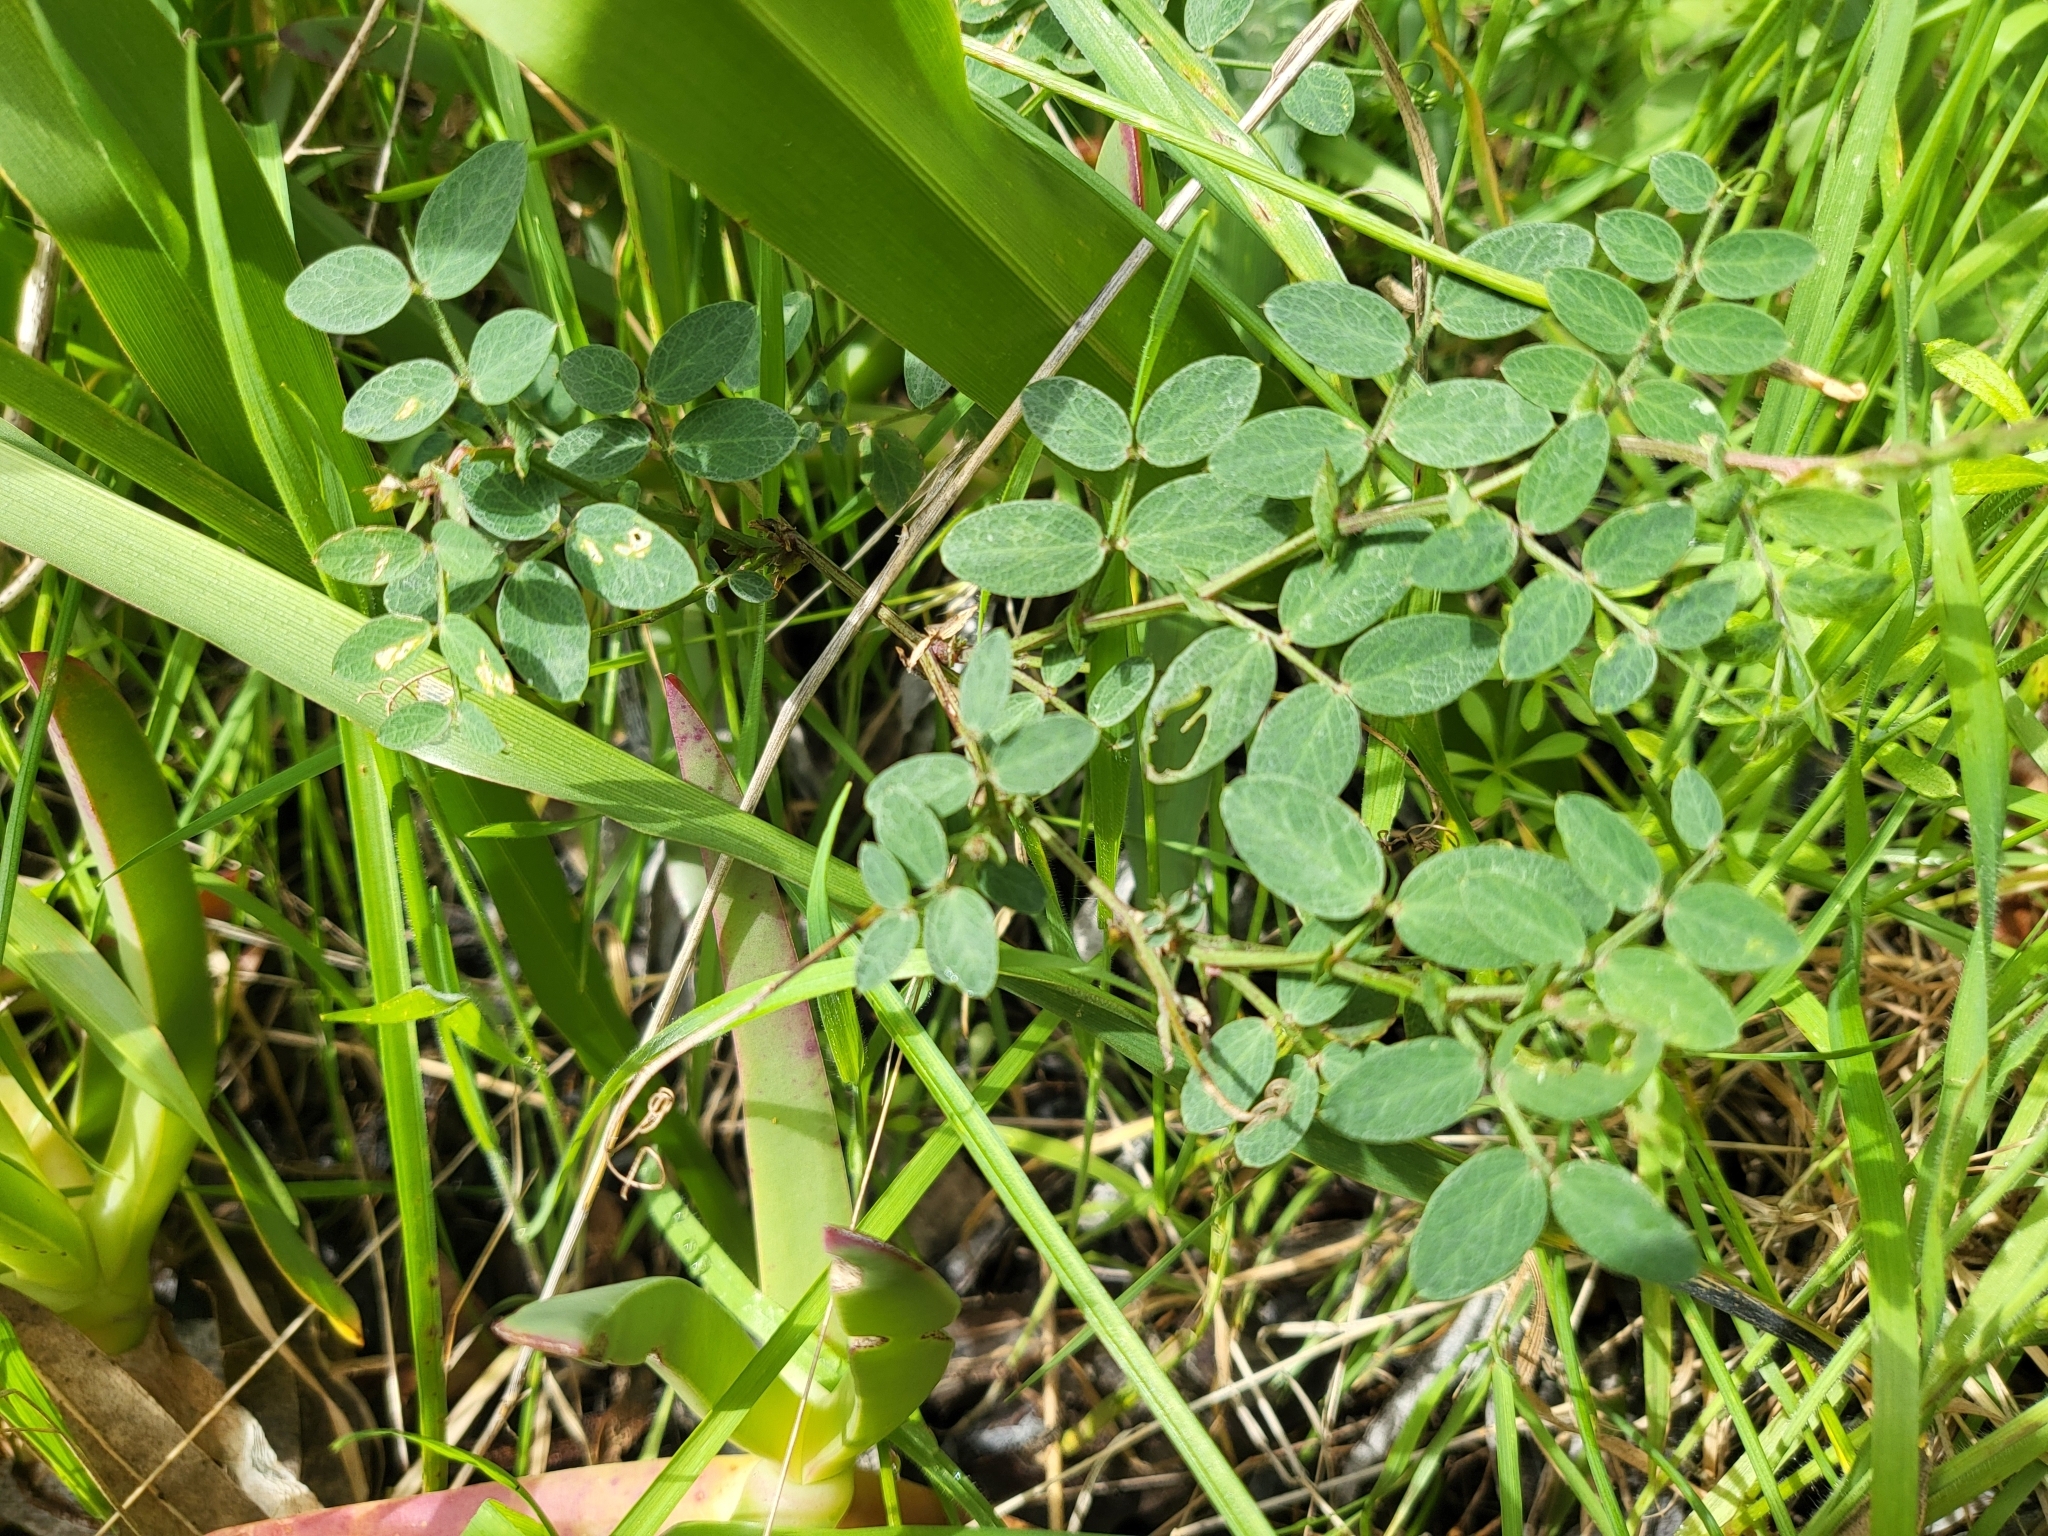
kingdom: Plantae
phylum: Tracheophyta
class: Magnoliopsida
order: Fabales
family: Fabaceae
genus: Lathyrus
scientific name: Lathyrus vestitus
